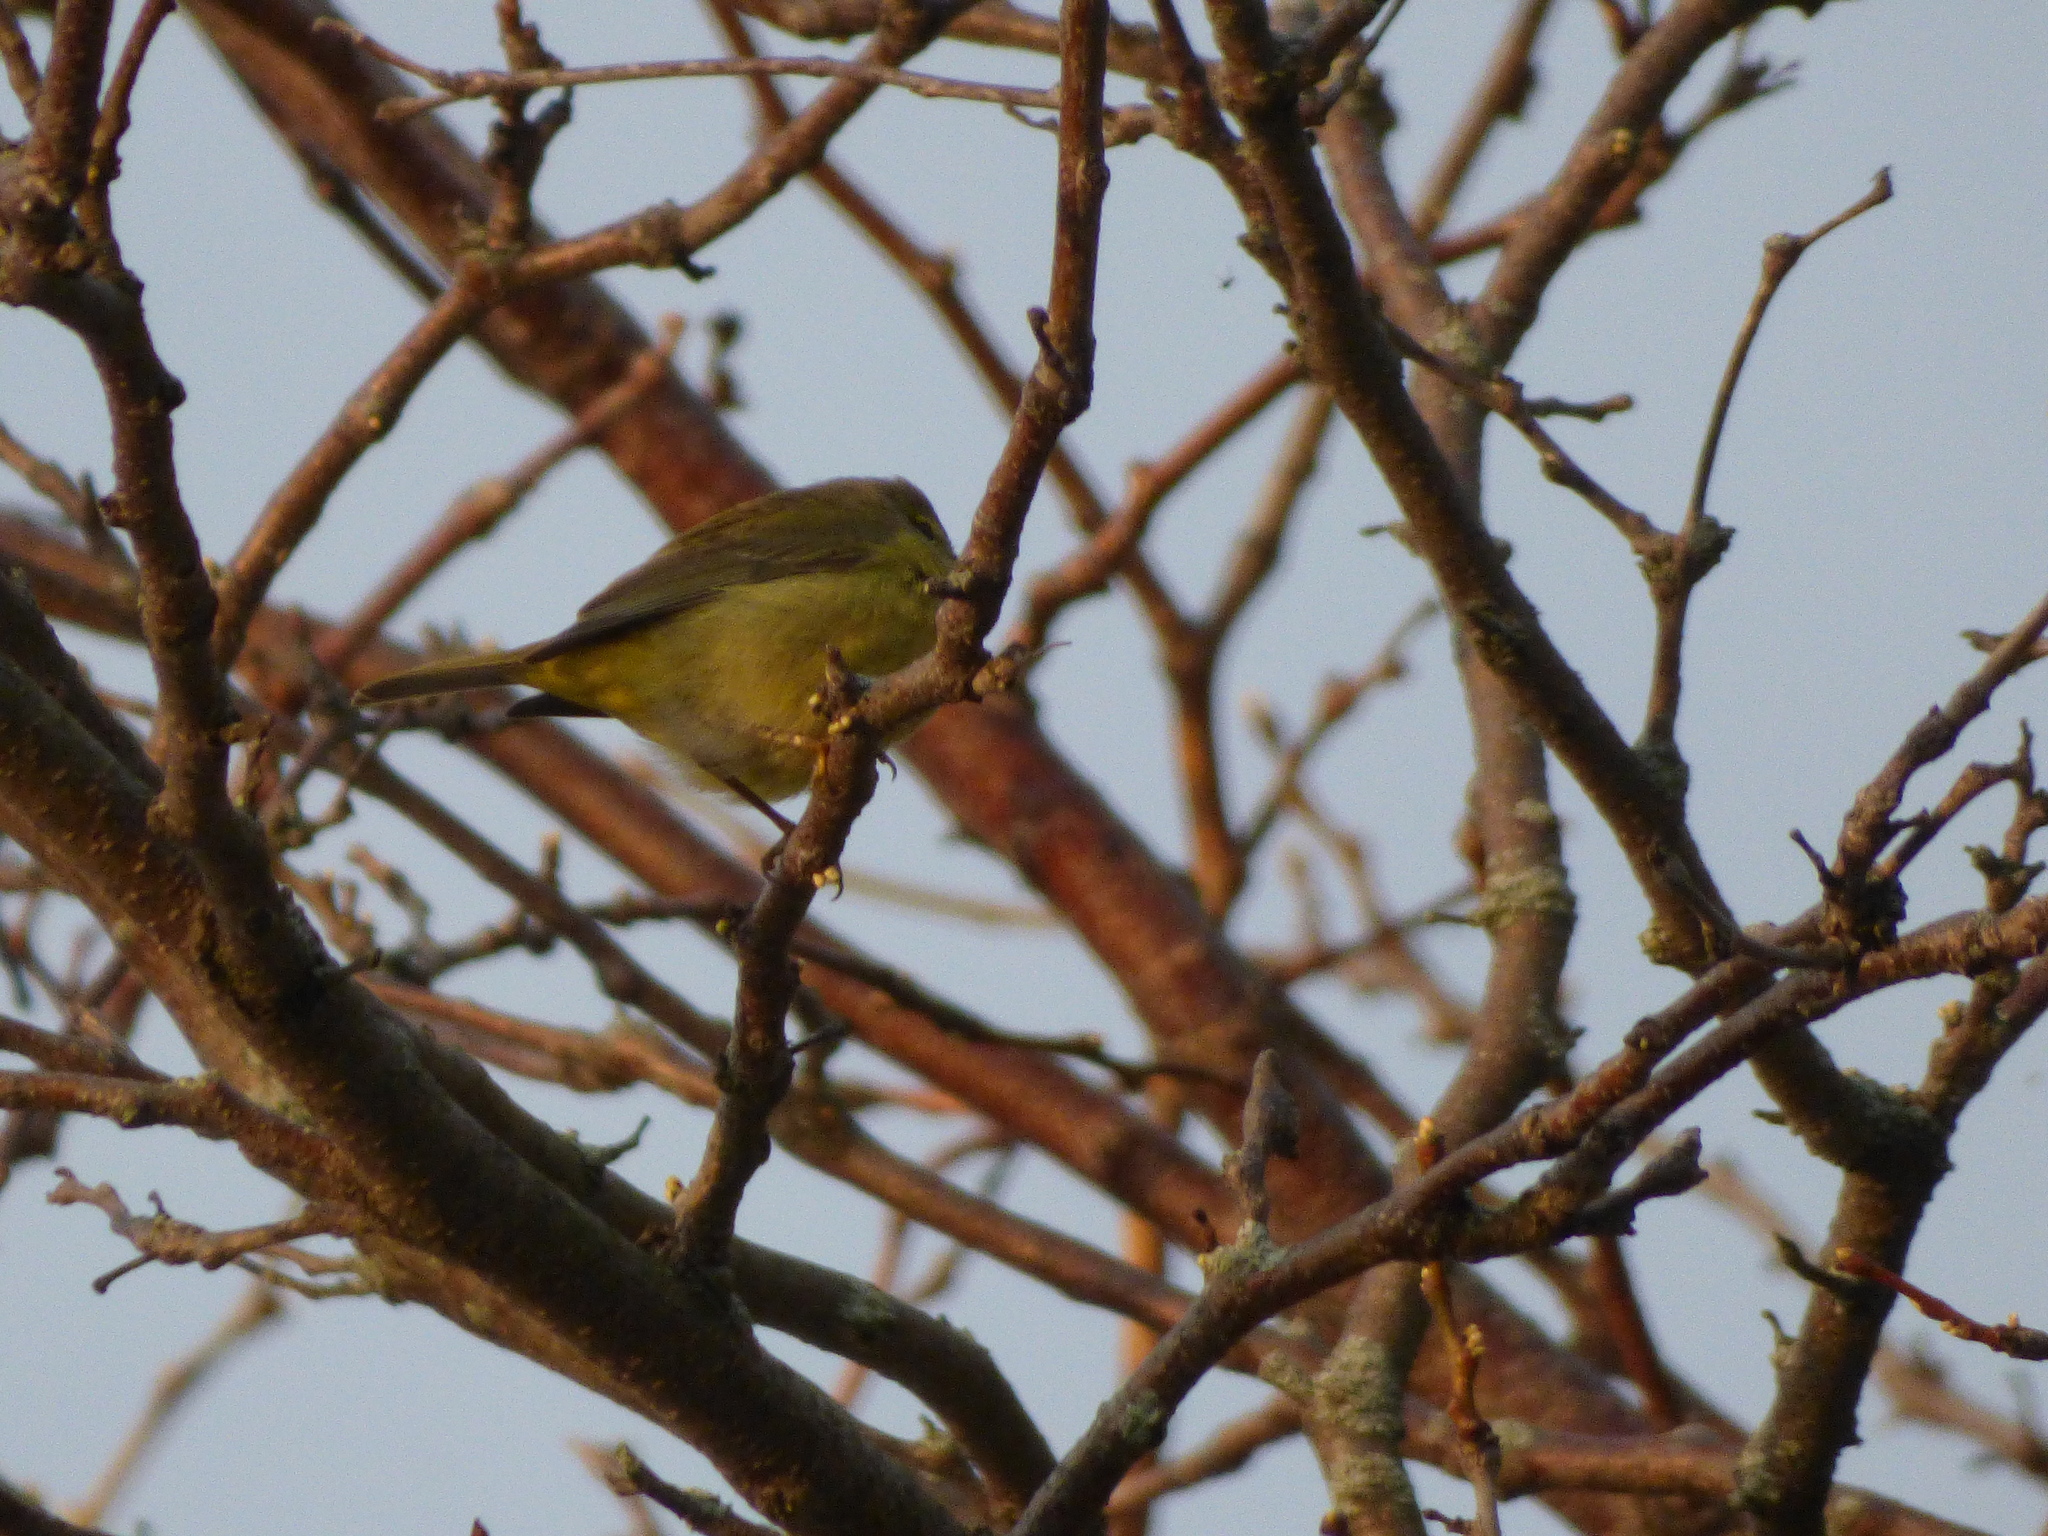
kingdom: Animalia
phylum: Chordata
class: Aves
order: Passeriformes
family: Parulidae
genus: Leiothlypis
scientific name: Leiothlypis celata
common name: Orange-crowned warbler
